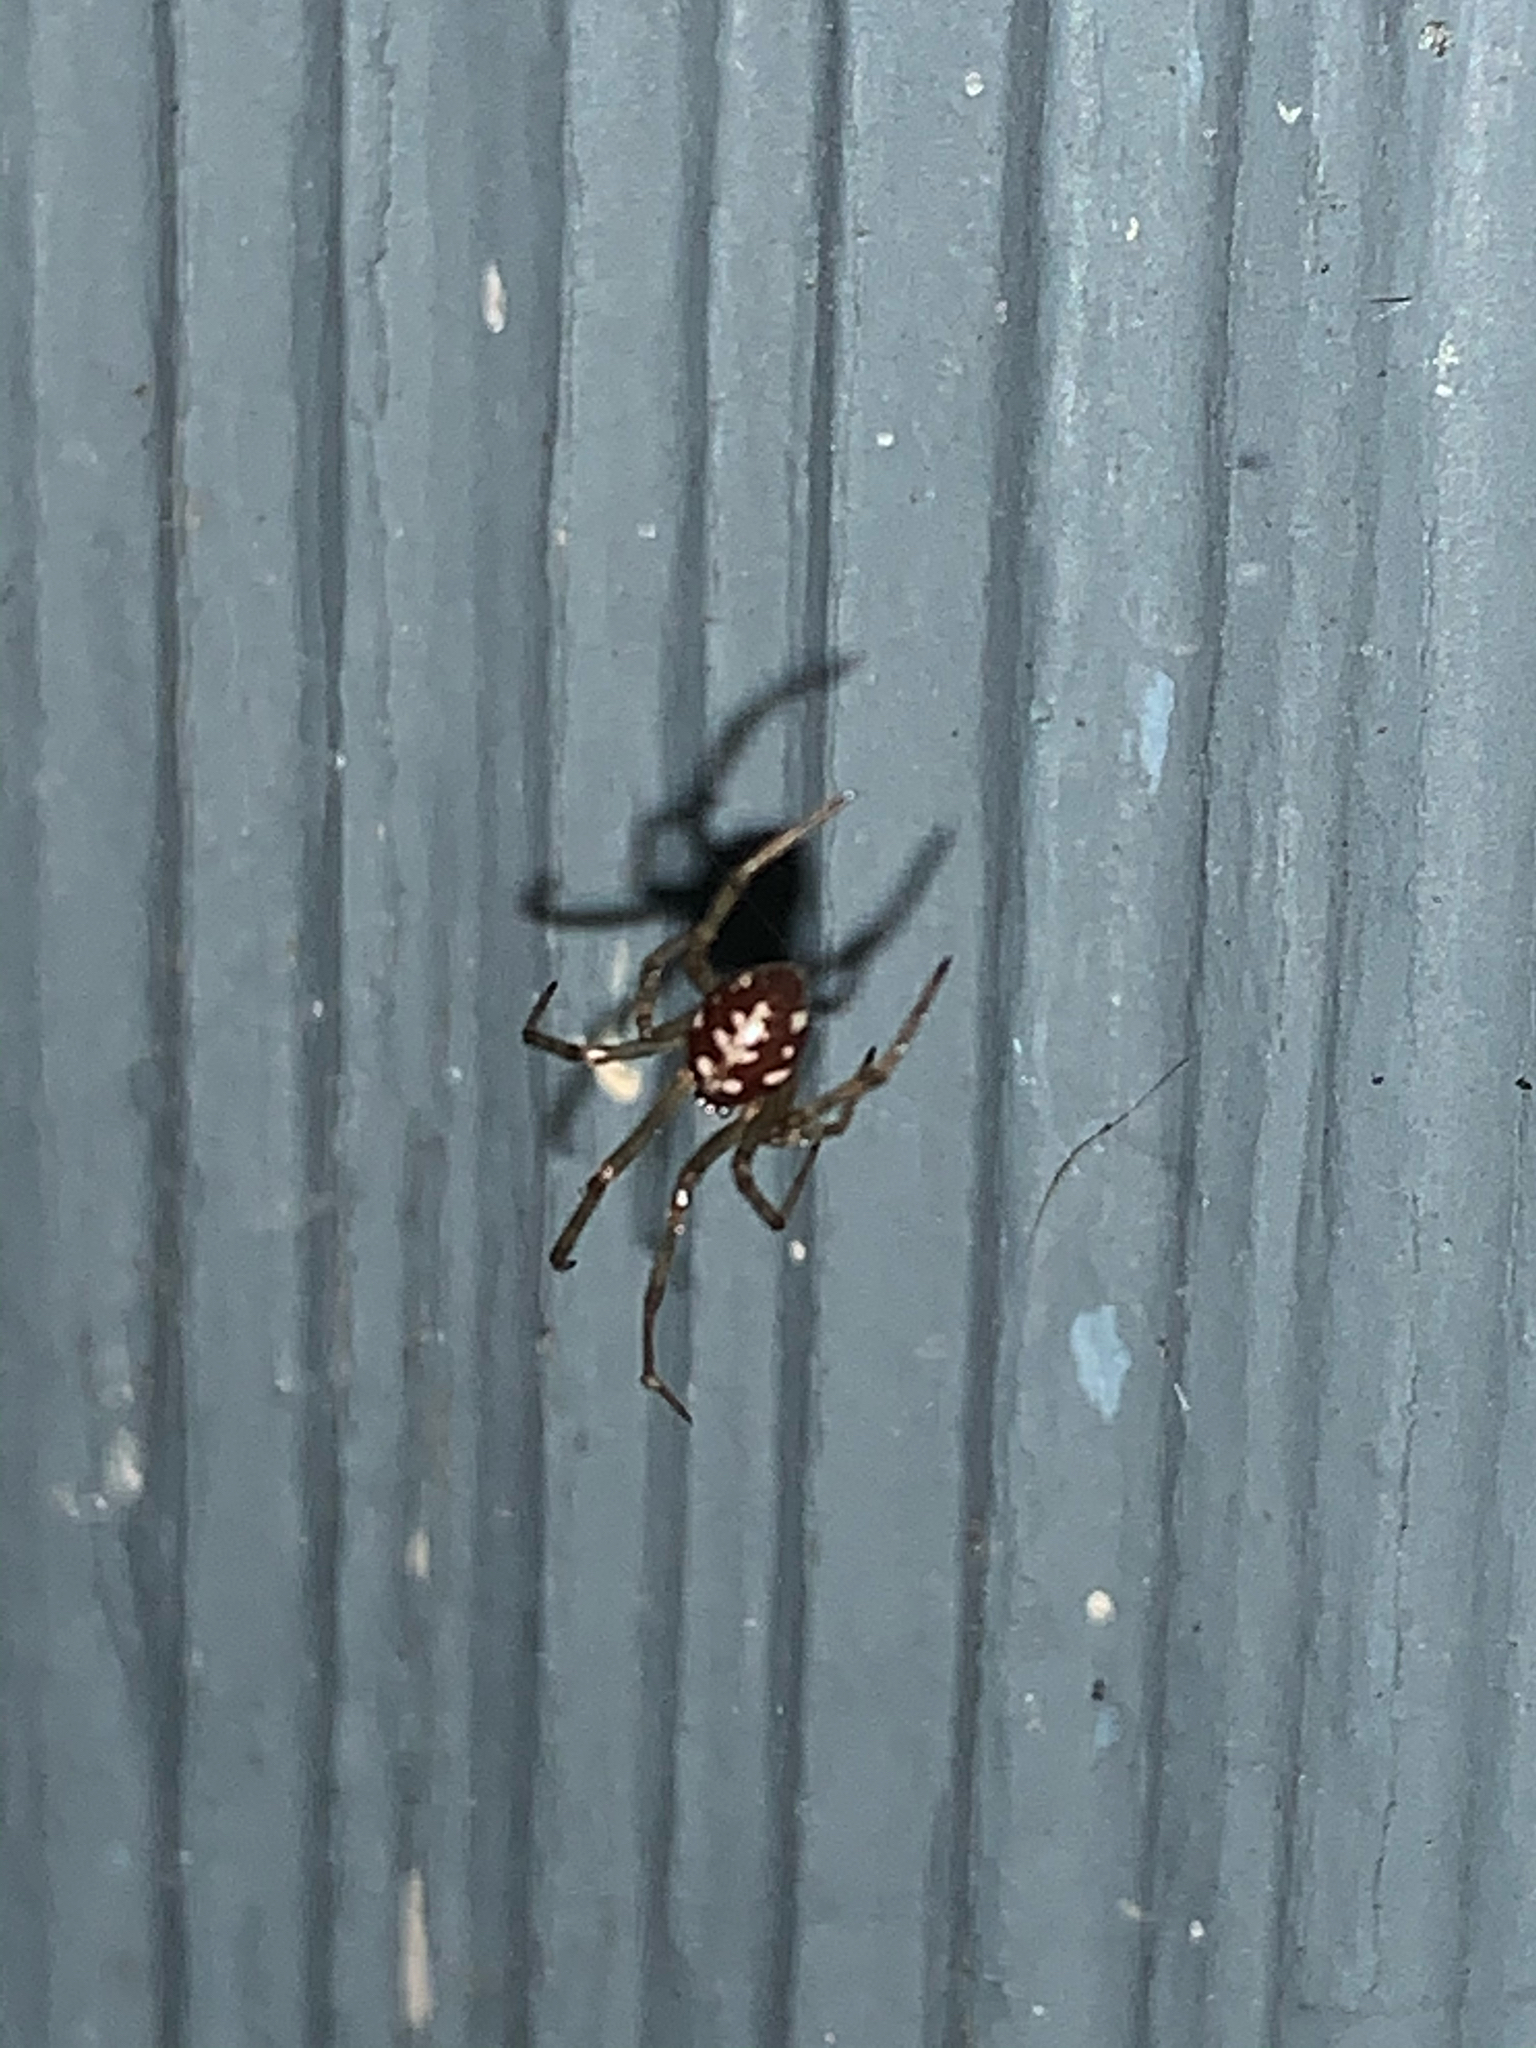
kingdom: Animalia
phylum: Arthropoda
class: Arachnida
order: Araneae
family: Theridiidae
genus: Steatoda
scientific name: Steatoda triangulosa
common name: Triangulate bud spider
